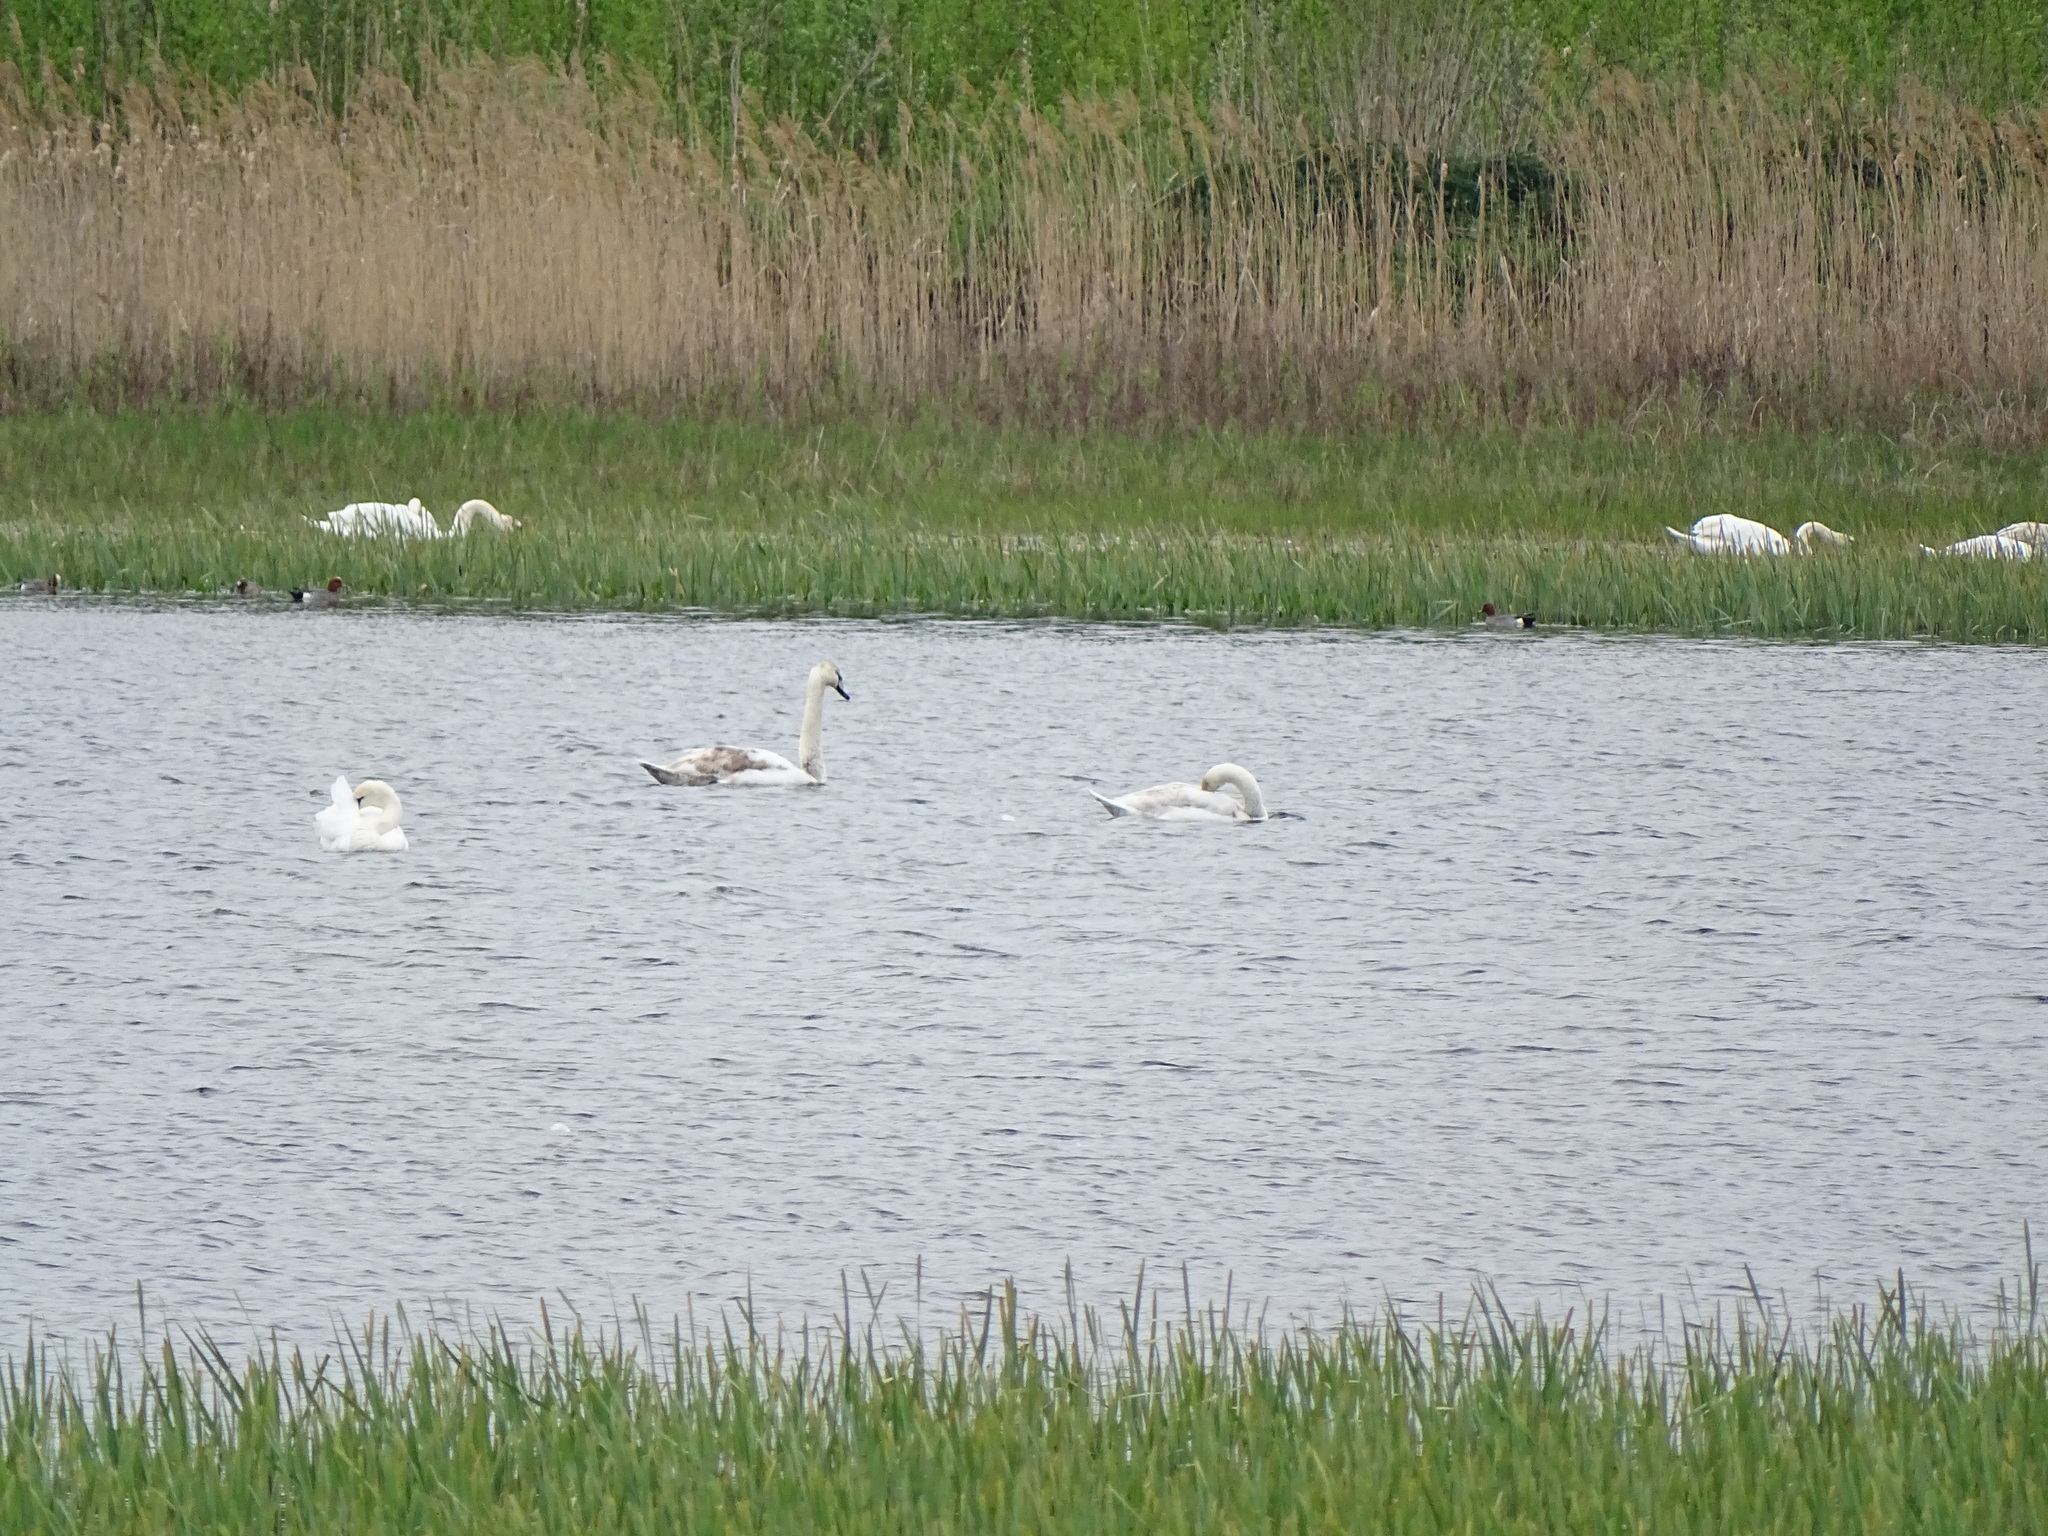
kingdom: Animalia
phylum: Chordata
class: Aves
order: Anseriformes
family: Anatidae
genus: Cygnus
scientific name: Cygnus olor
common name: Mute swan
